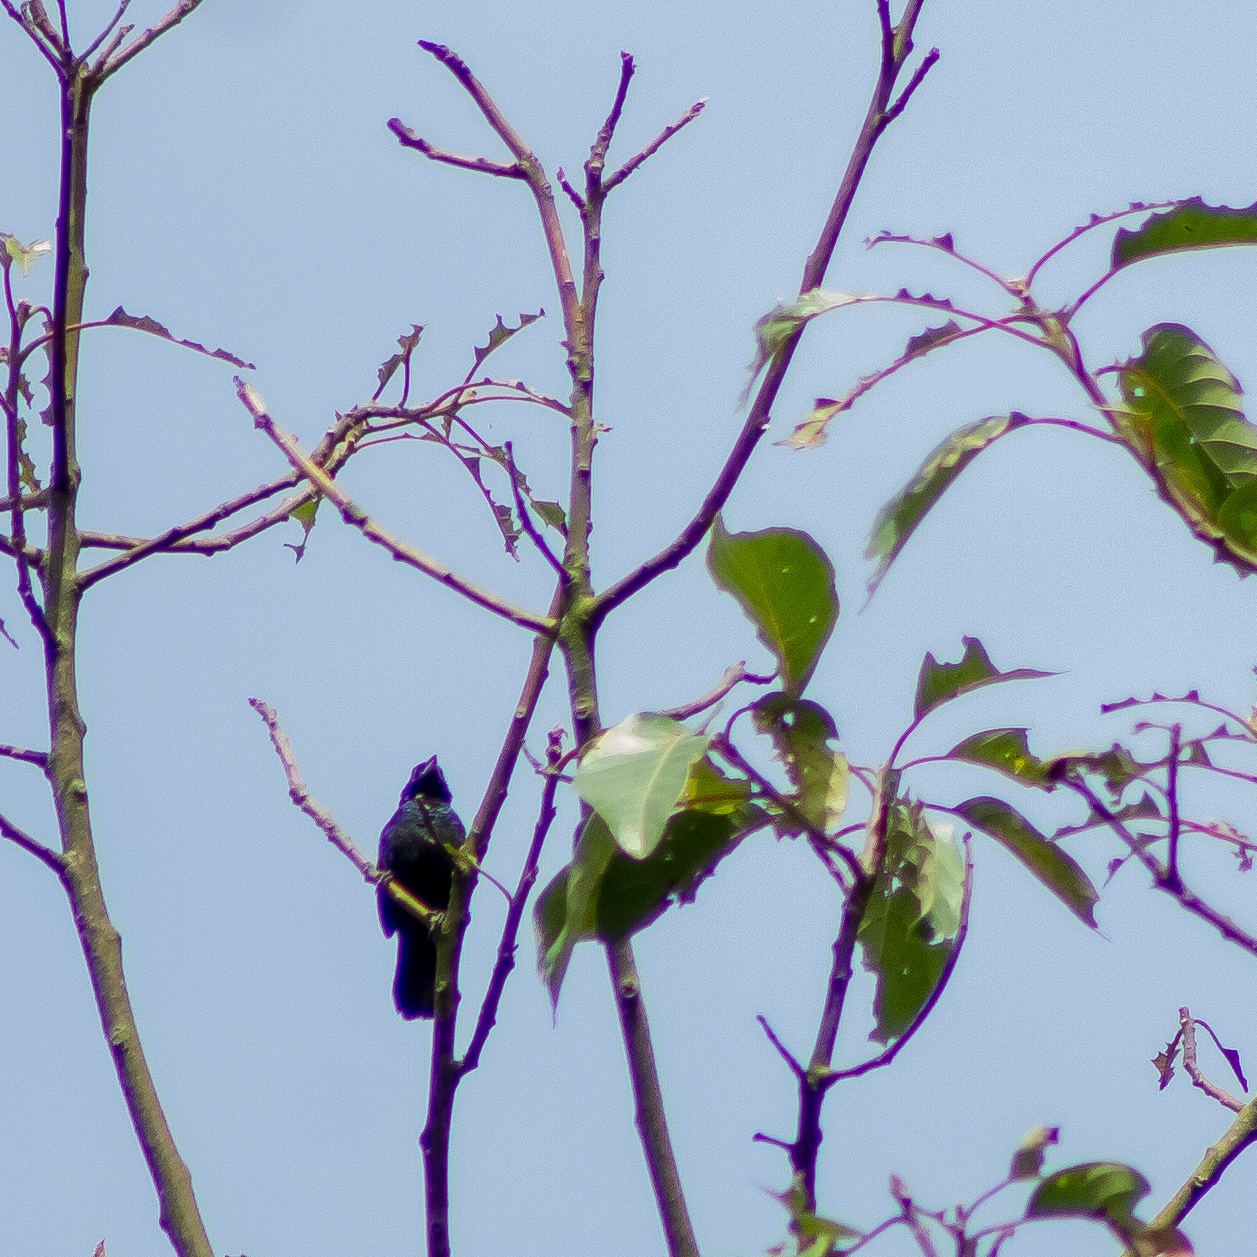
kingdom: Animalia
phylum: Chordata
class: Aves
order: Passeriformes
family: Thraupidae
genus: Volatinia
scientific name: Volatinia jacarina
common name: Blue-black grassquit
